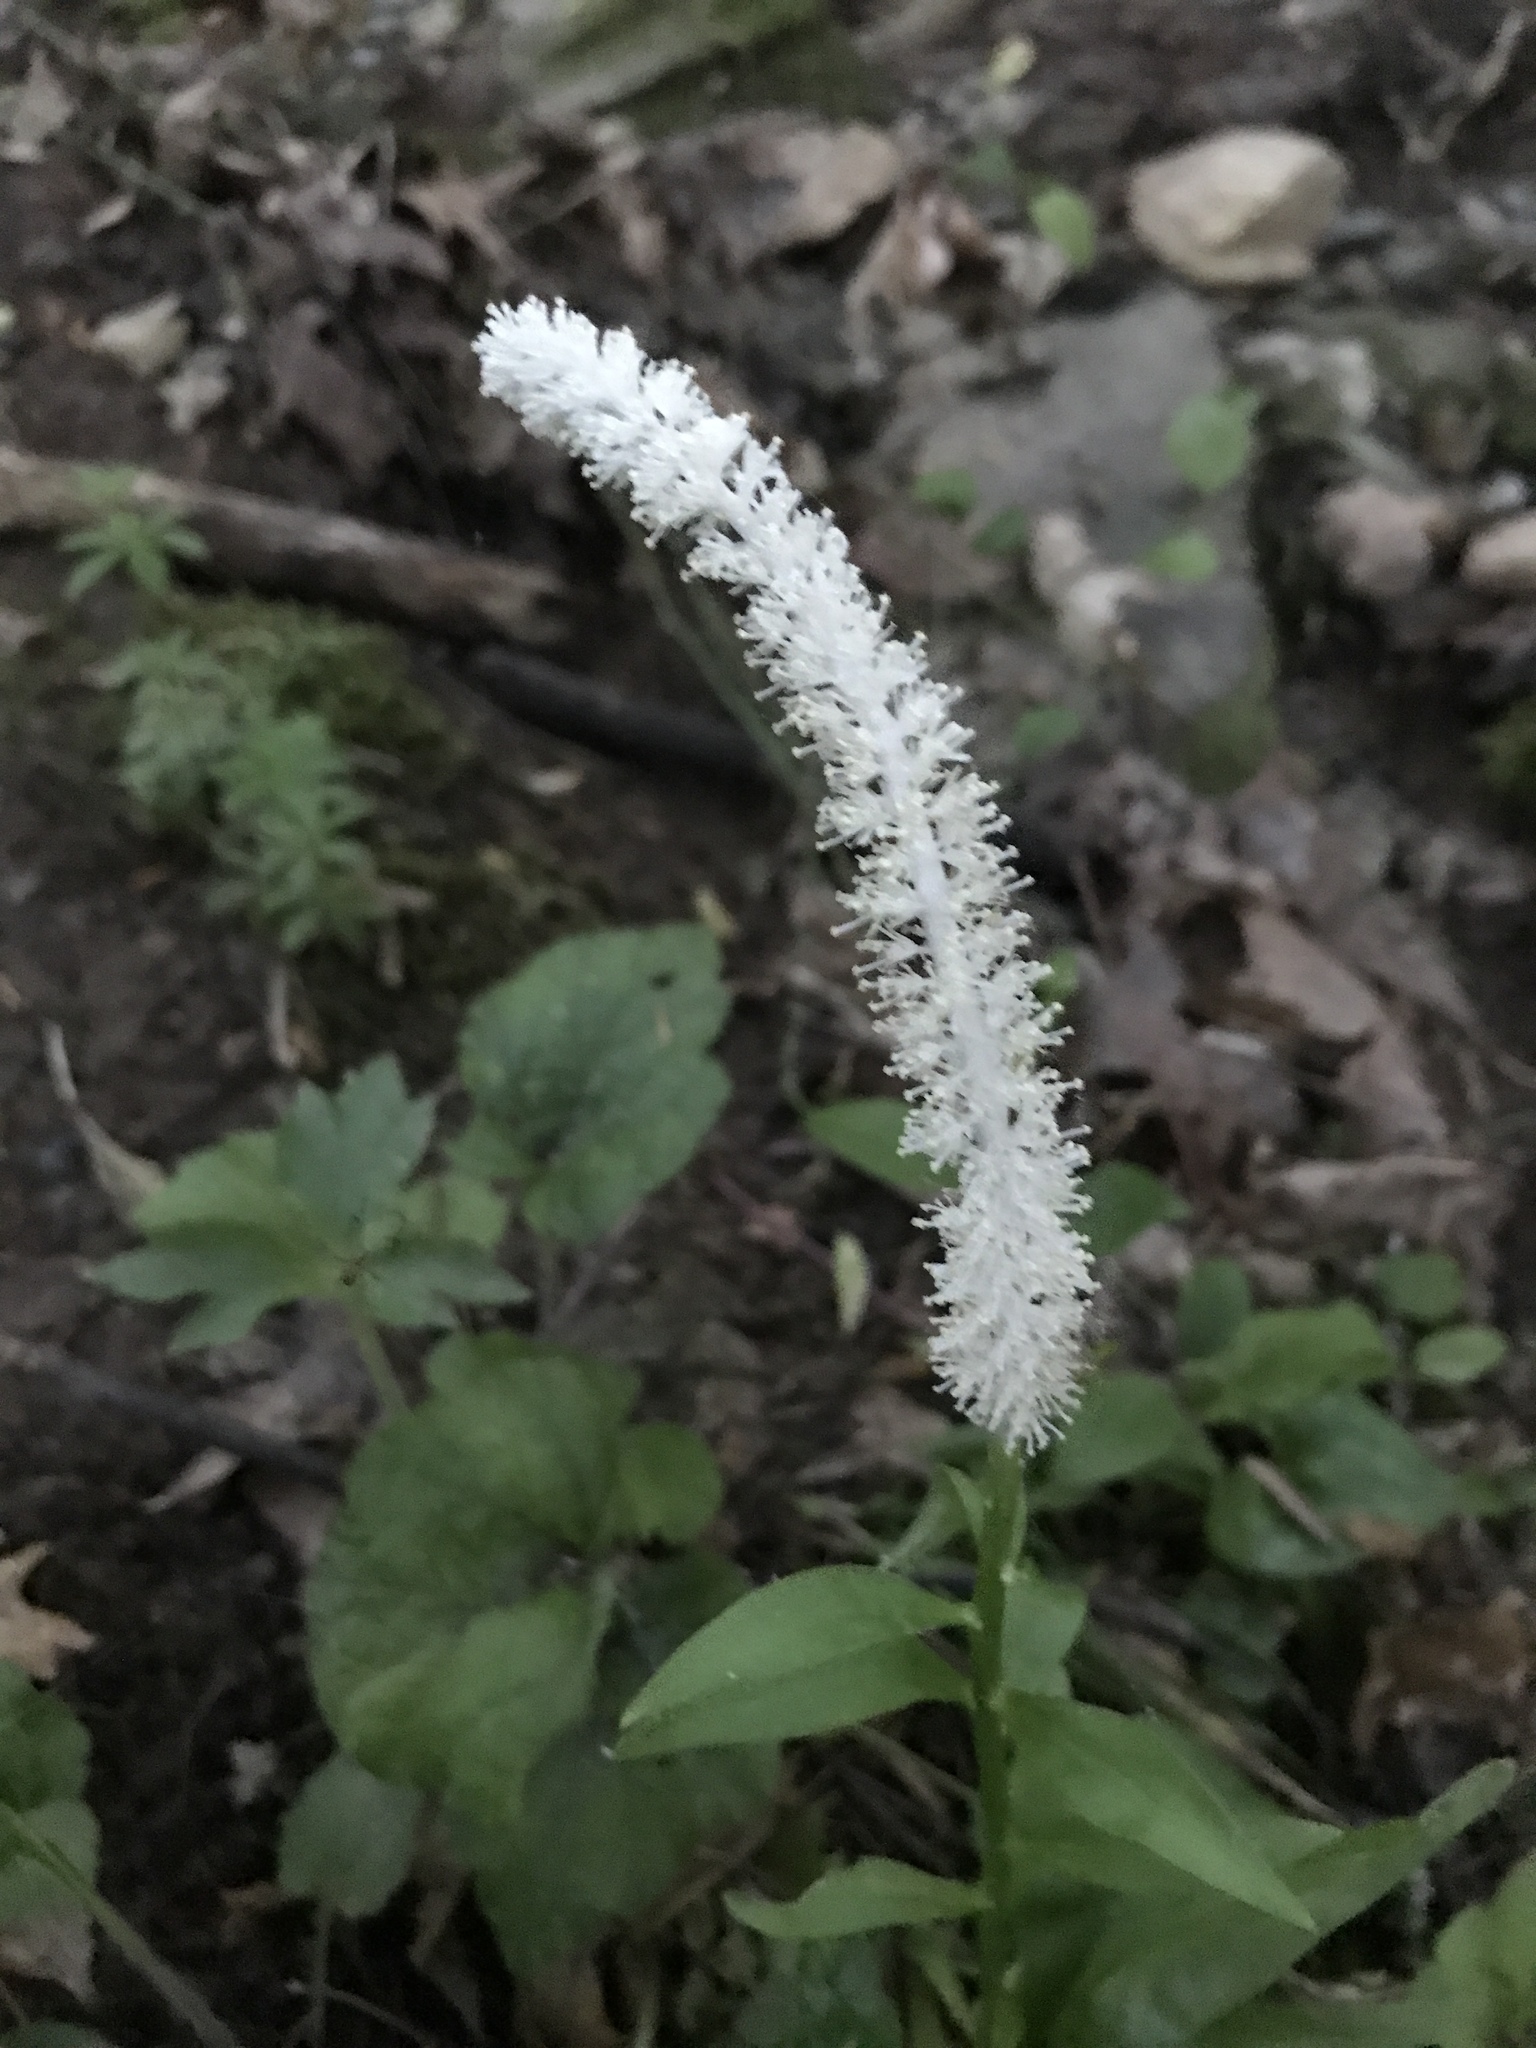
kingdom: Plantae
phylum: Tracheophyta
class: Liliopsida
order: Liliales
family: Melanthiaceae
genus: Chamaelirium
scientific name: Chamaelirium luteum
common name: Fairy-wand
